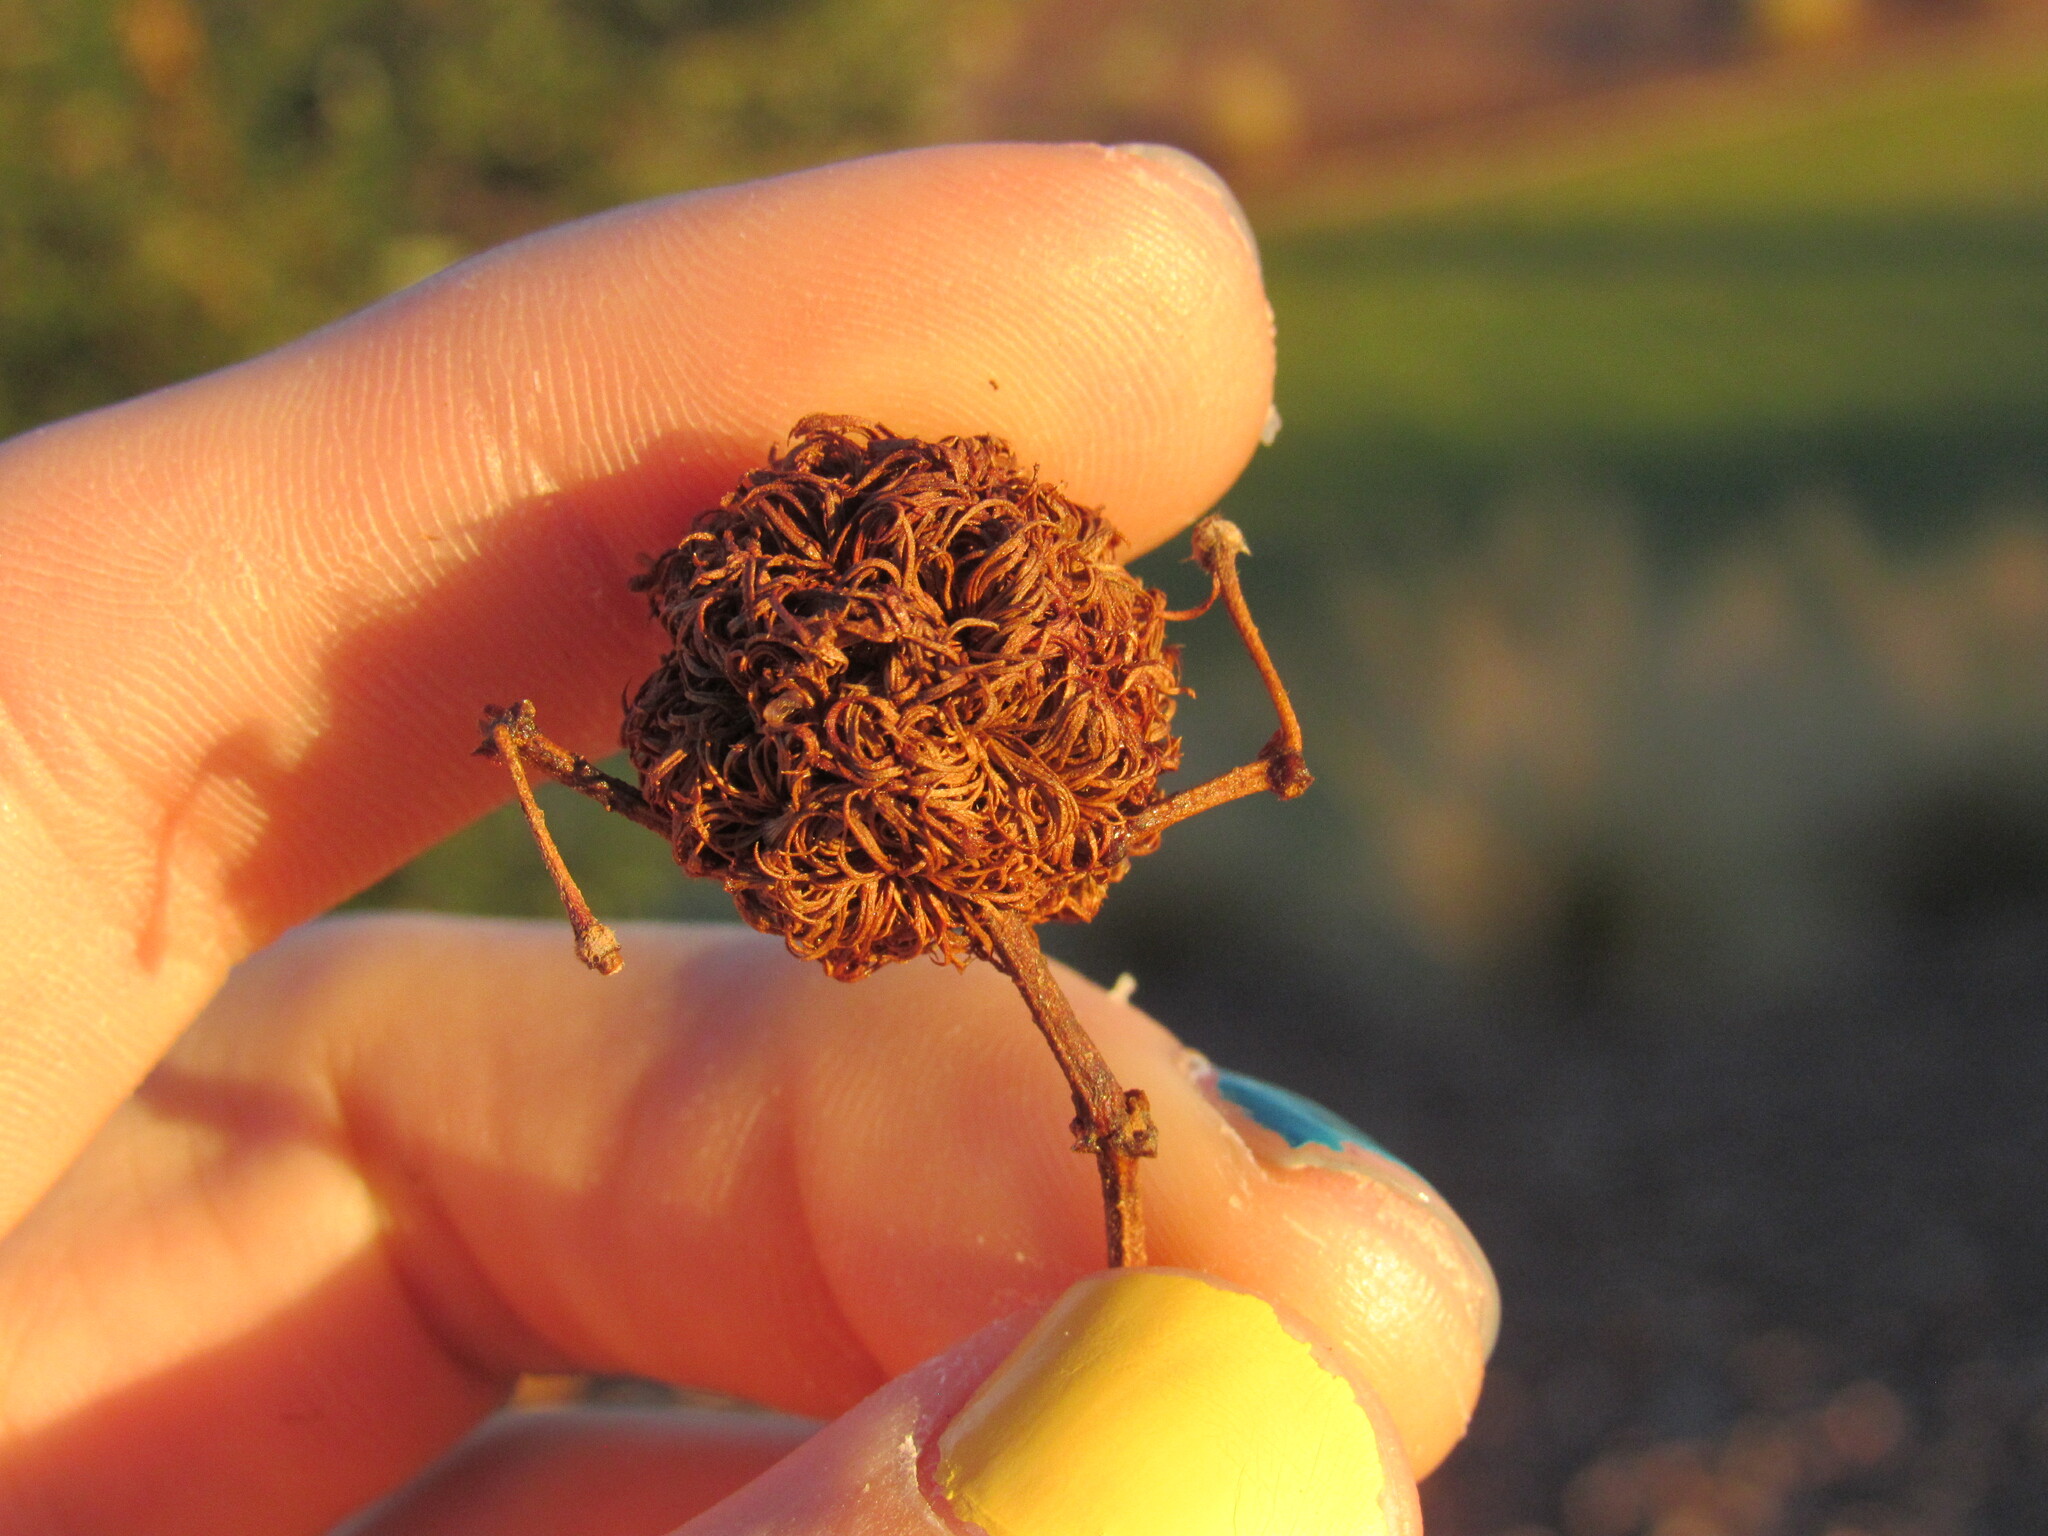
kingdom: Animalia
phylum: Arthropoda
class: Insecta
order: Diptera
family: Cecidomyiidae
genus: Asphondylia
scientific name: Asphondylia auripila
